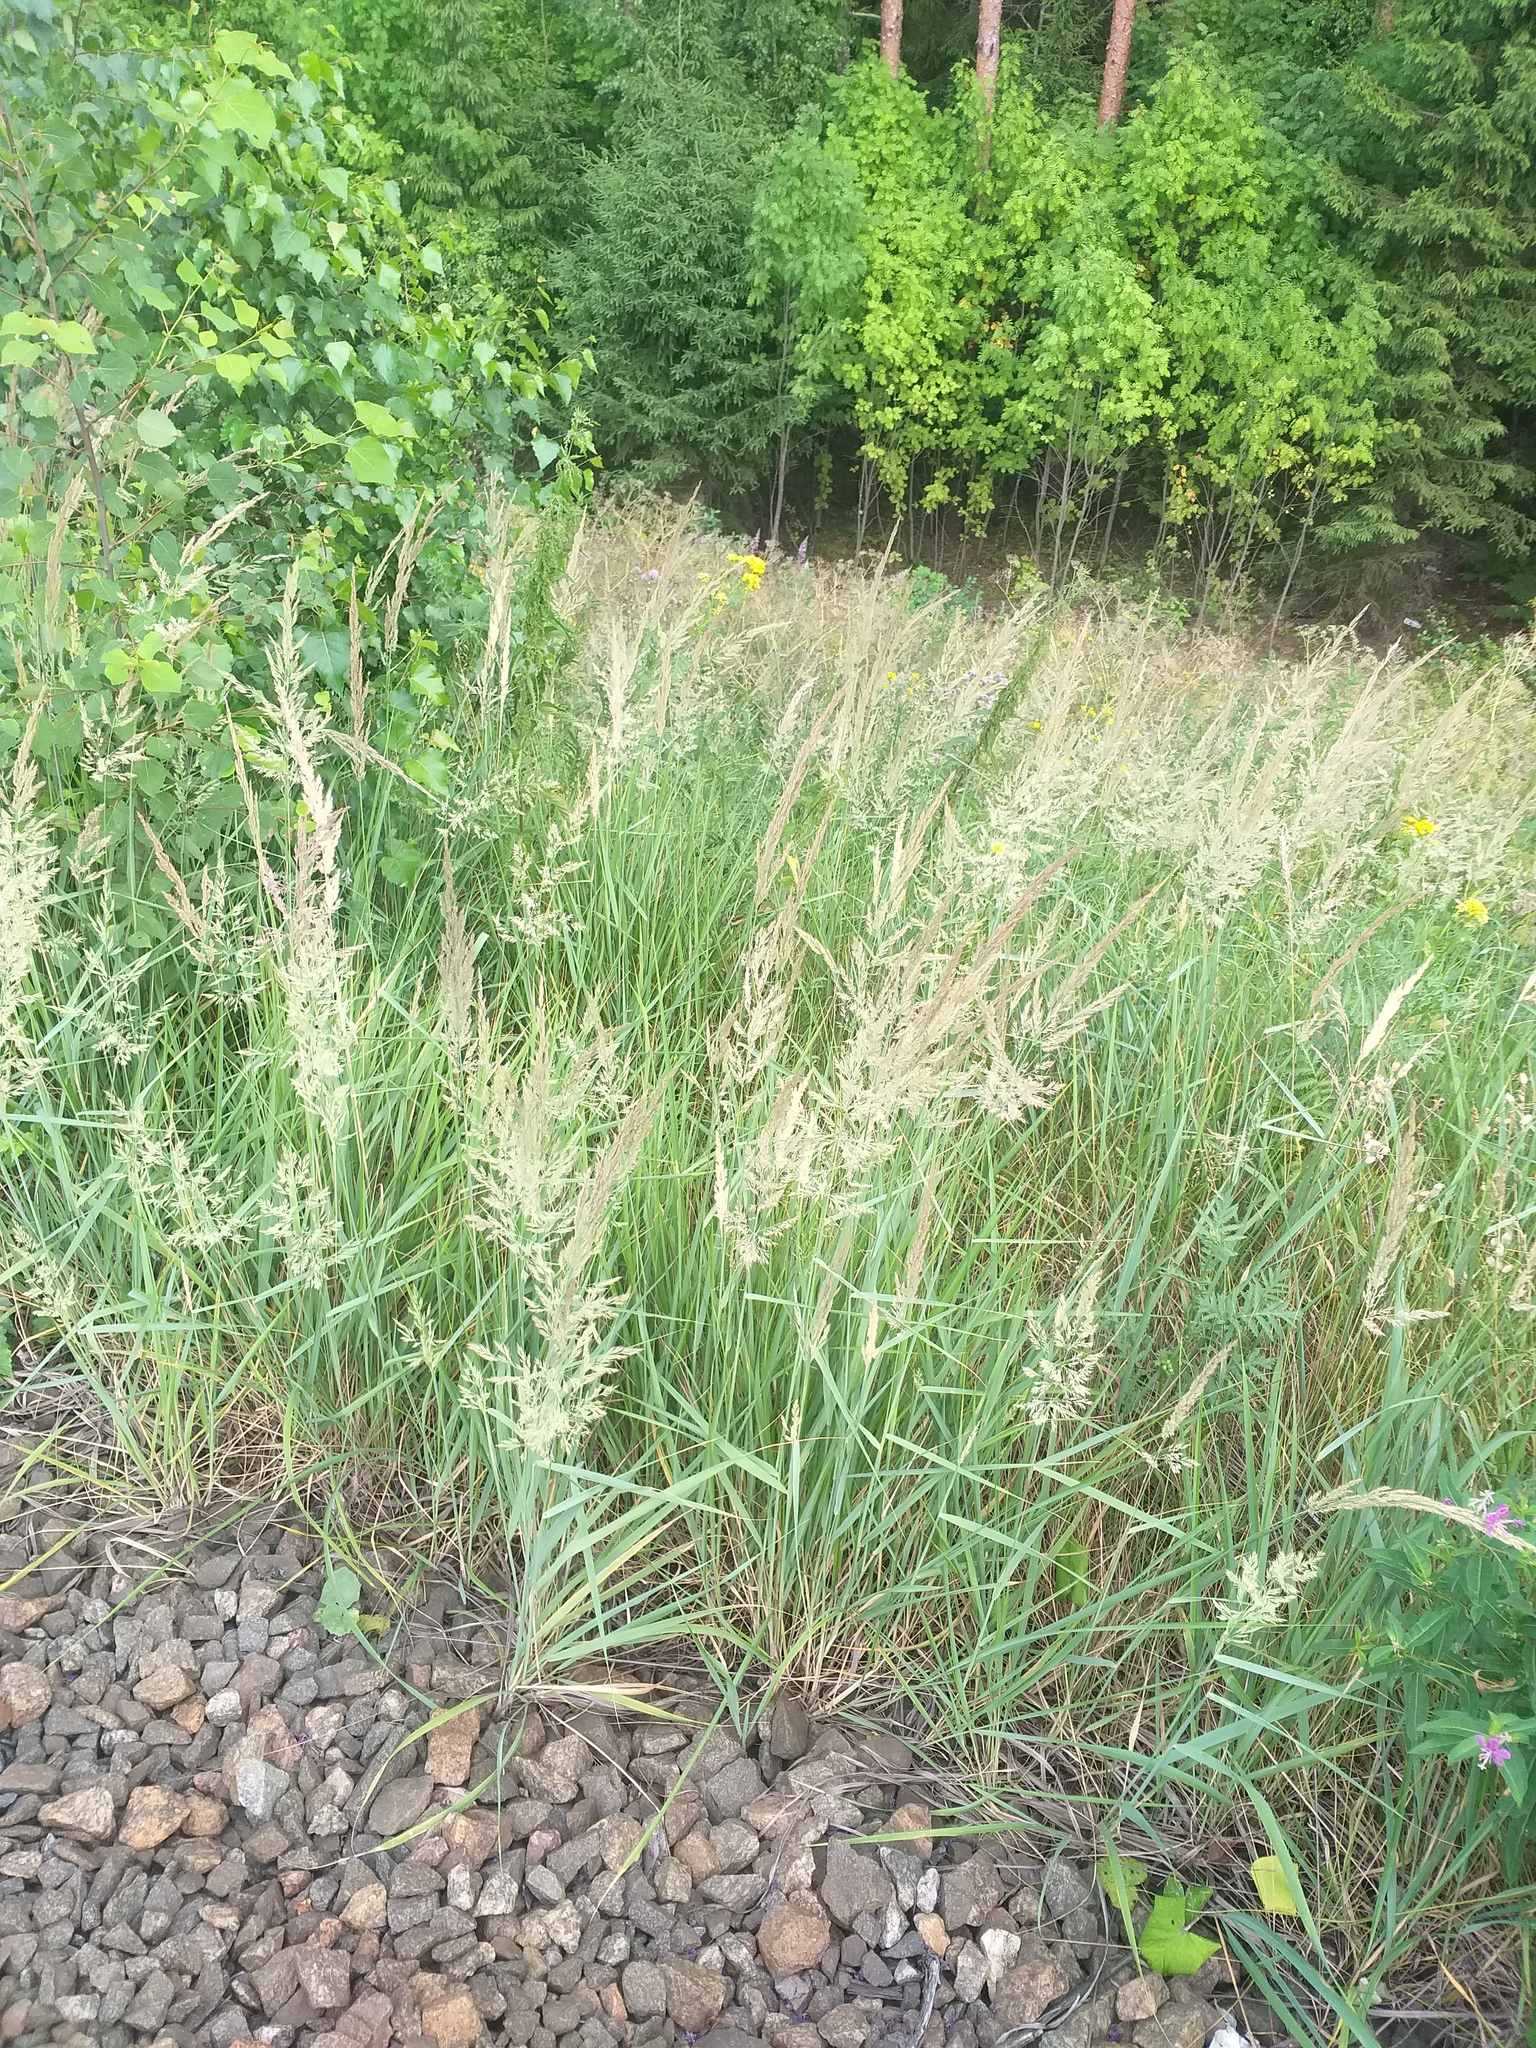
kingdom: Plantae
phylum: Tracheophyta
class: Liliopsida
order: Poales
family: Poaceae
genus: Calamagrostis
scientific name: Calamagrostis epigejos
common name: Wood small-reed
